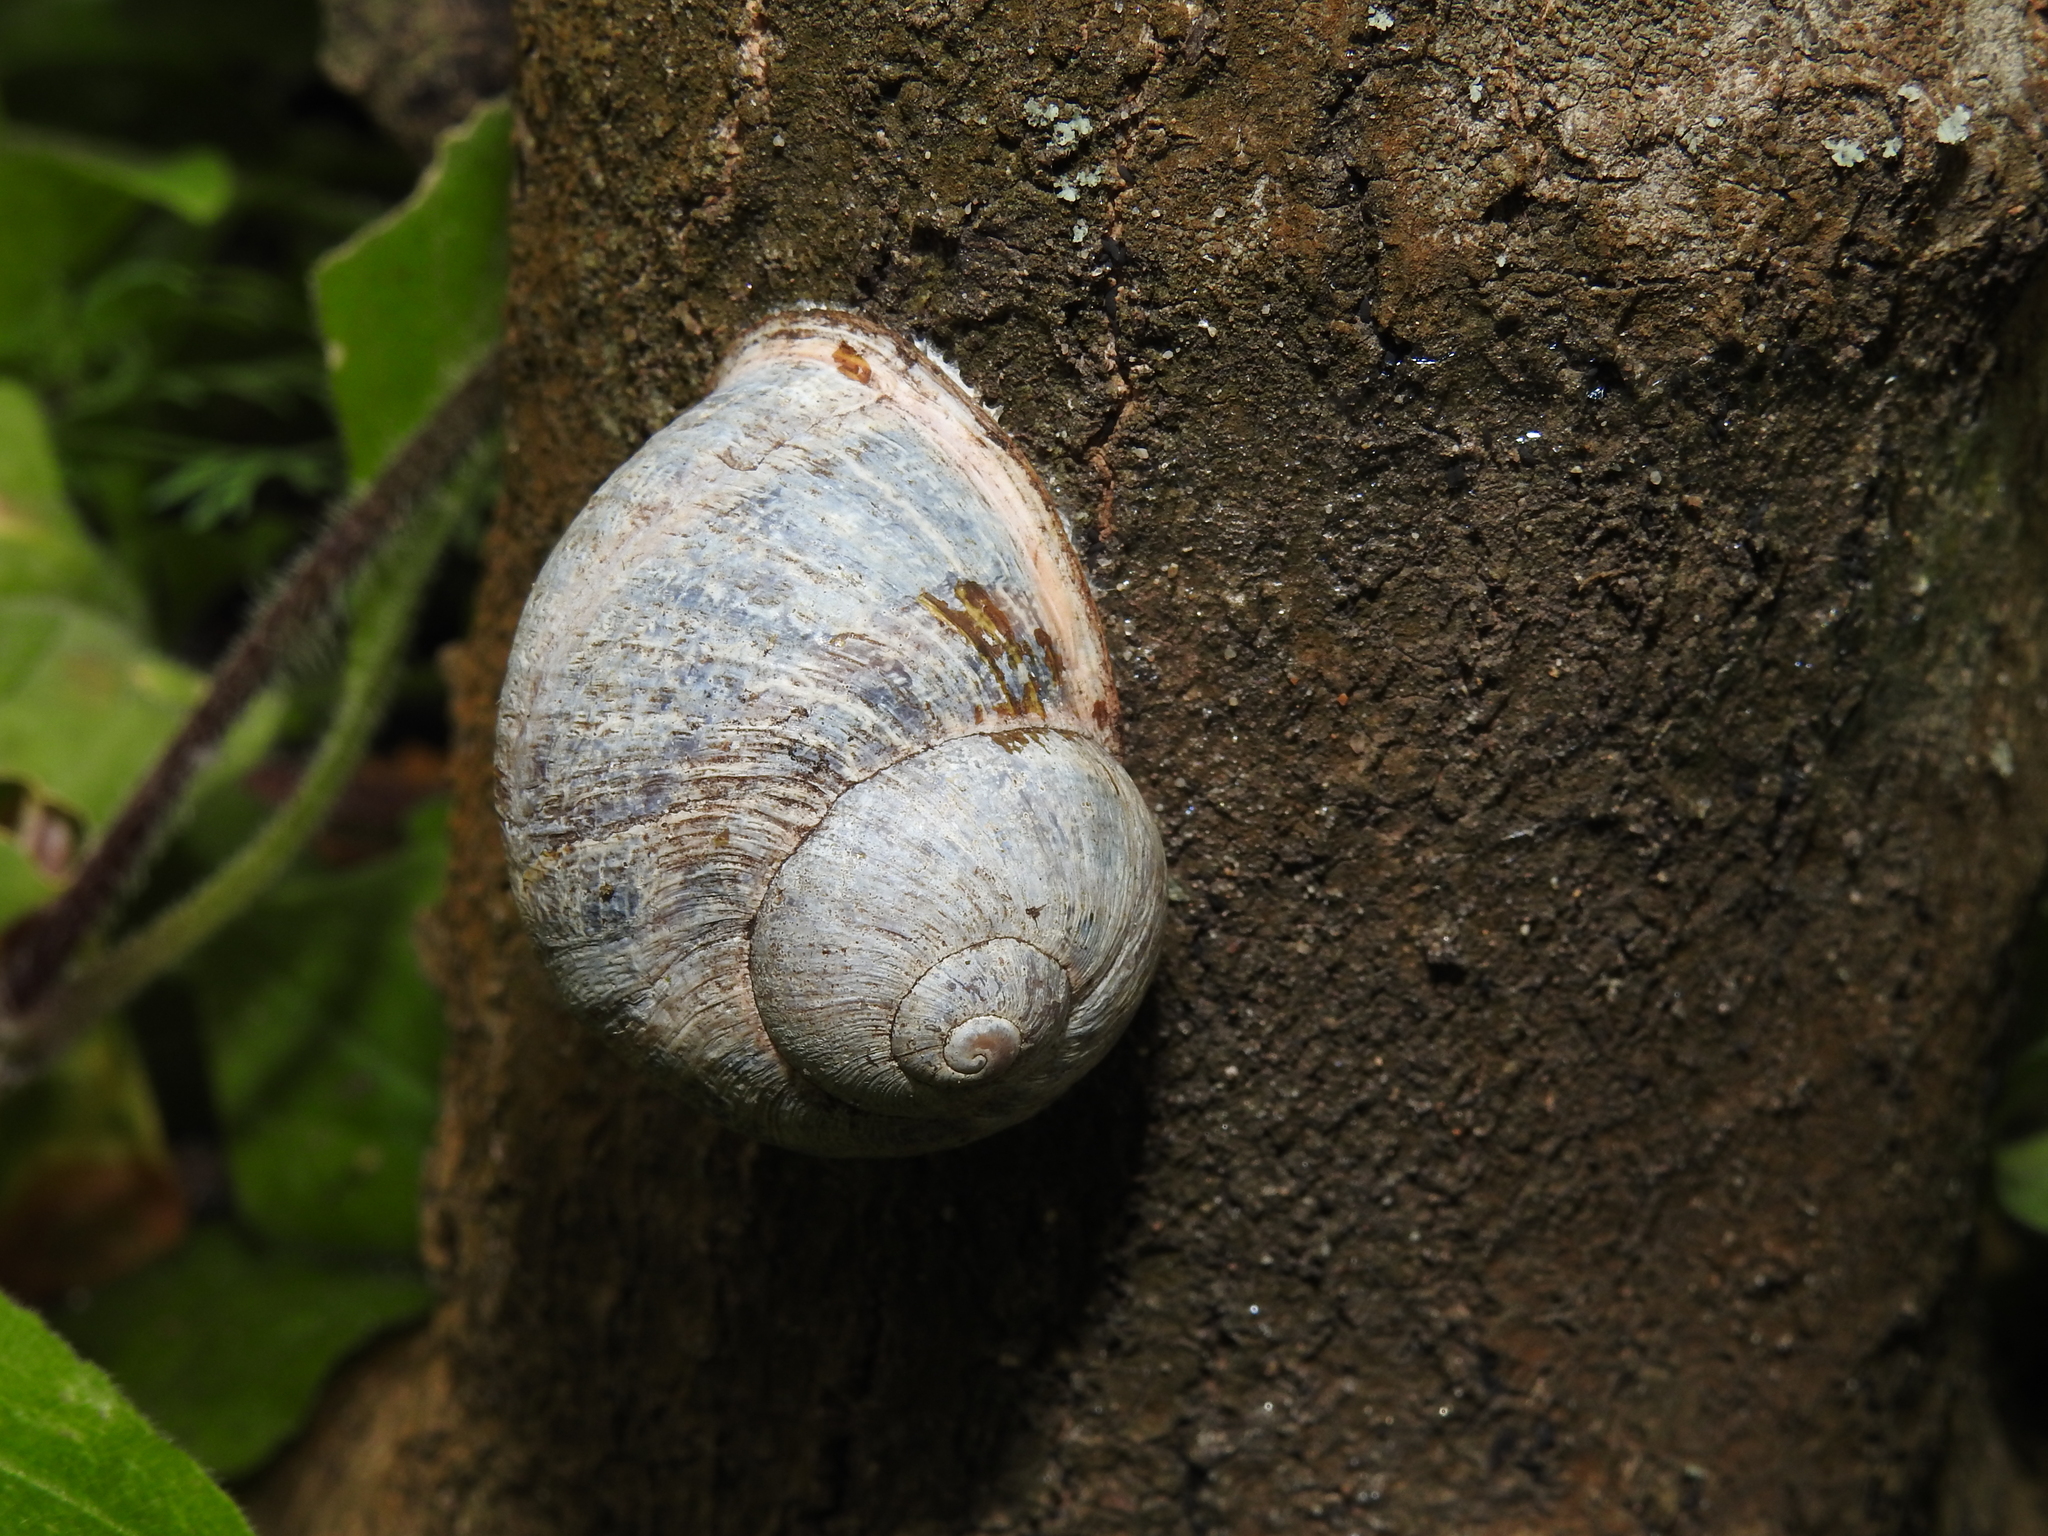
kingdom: Animalia
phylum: Mollusca
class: Gastropoda
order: Stylommatophora
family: Helicidae
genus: Cornu
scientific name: Cornu aspersum
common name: Brown garden snail
